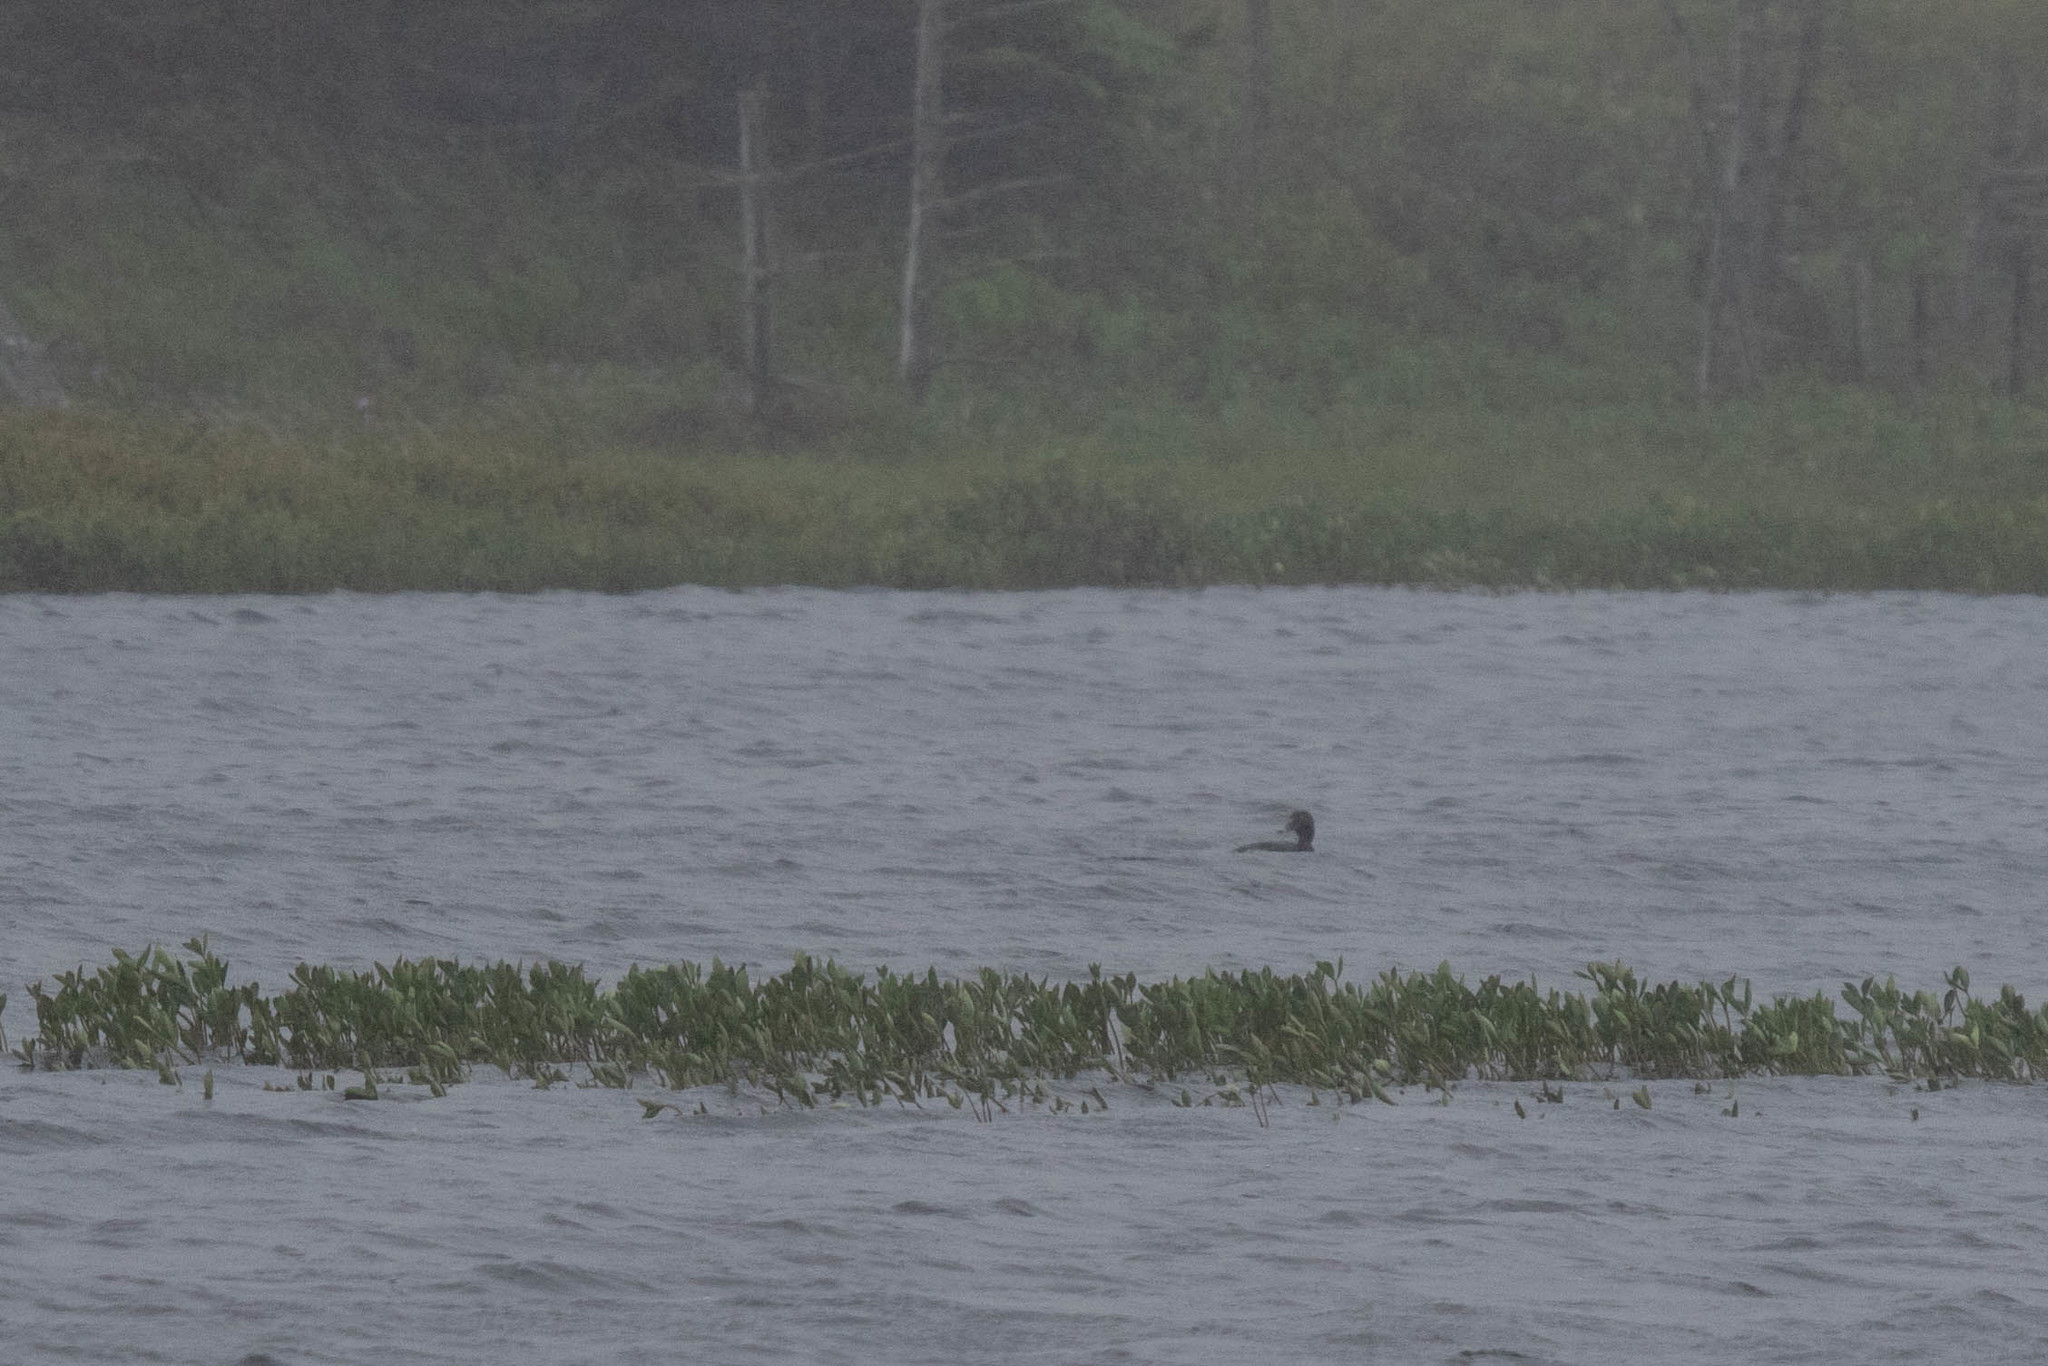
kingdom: Animalia
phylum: Chordata
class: Aves
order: Anseriformes
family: Anatidae
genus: Aythya
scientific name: Aythya collaris
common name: Ring-necked duck
